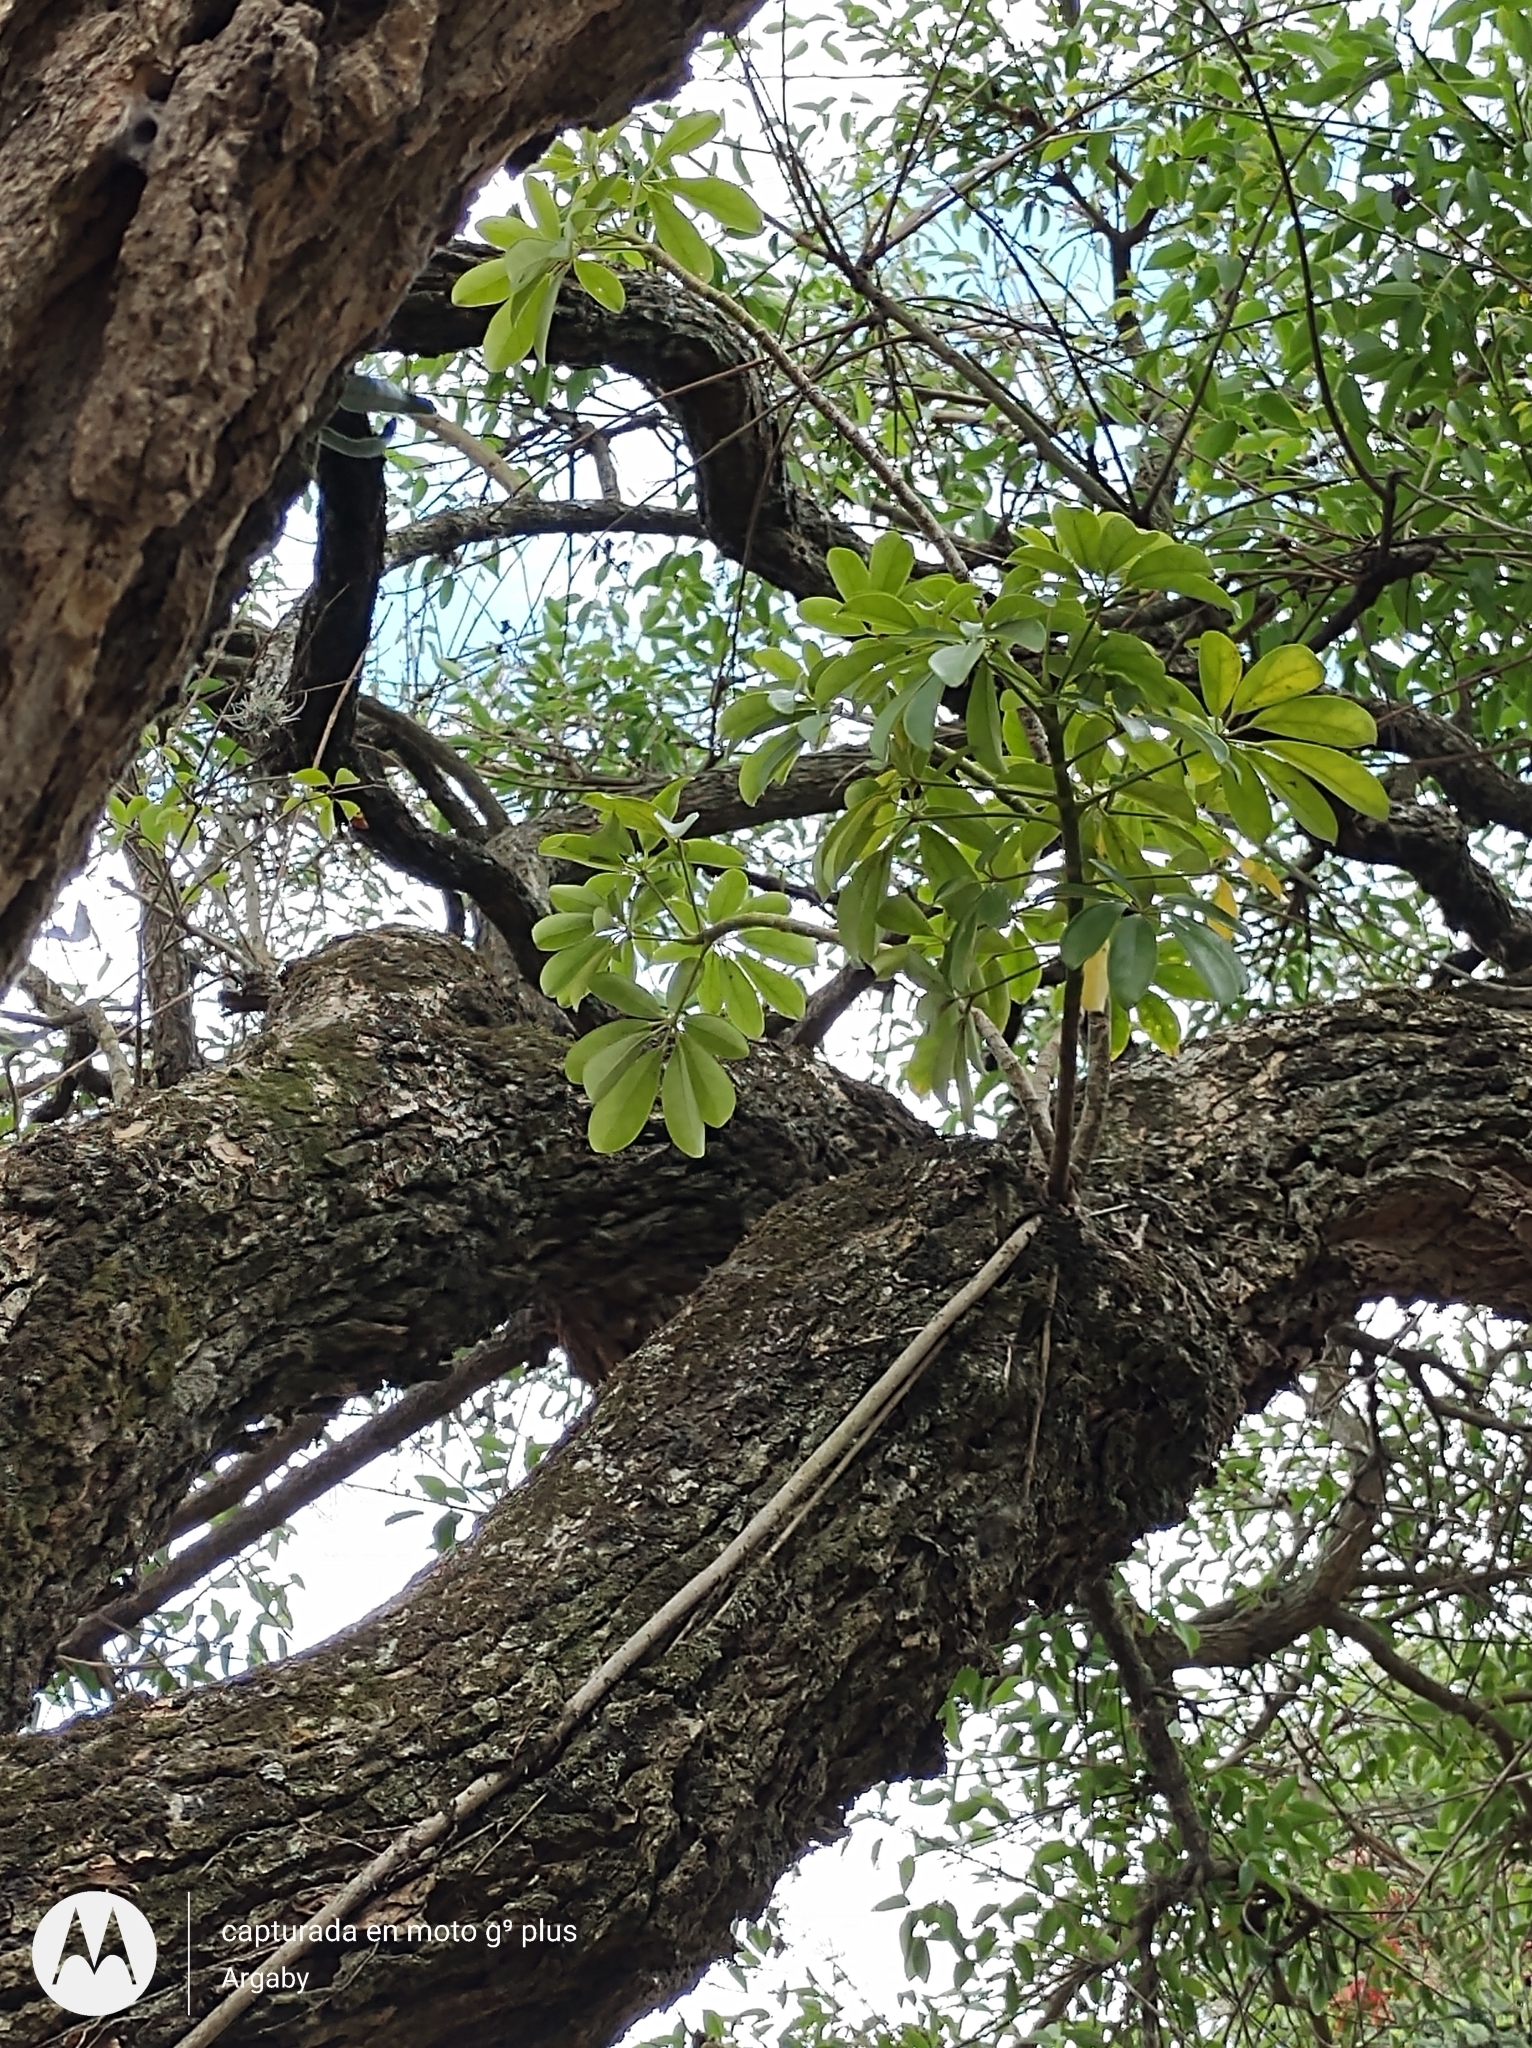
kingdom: Plantae
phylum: Tracheophyta
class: Magnoliopsida
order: Apiales
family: Araliaceae
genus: Heptapleurum
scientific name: Heptapleurum arboricola
